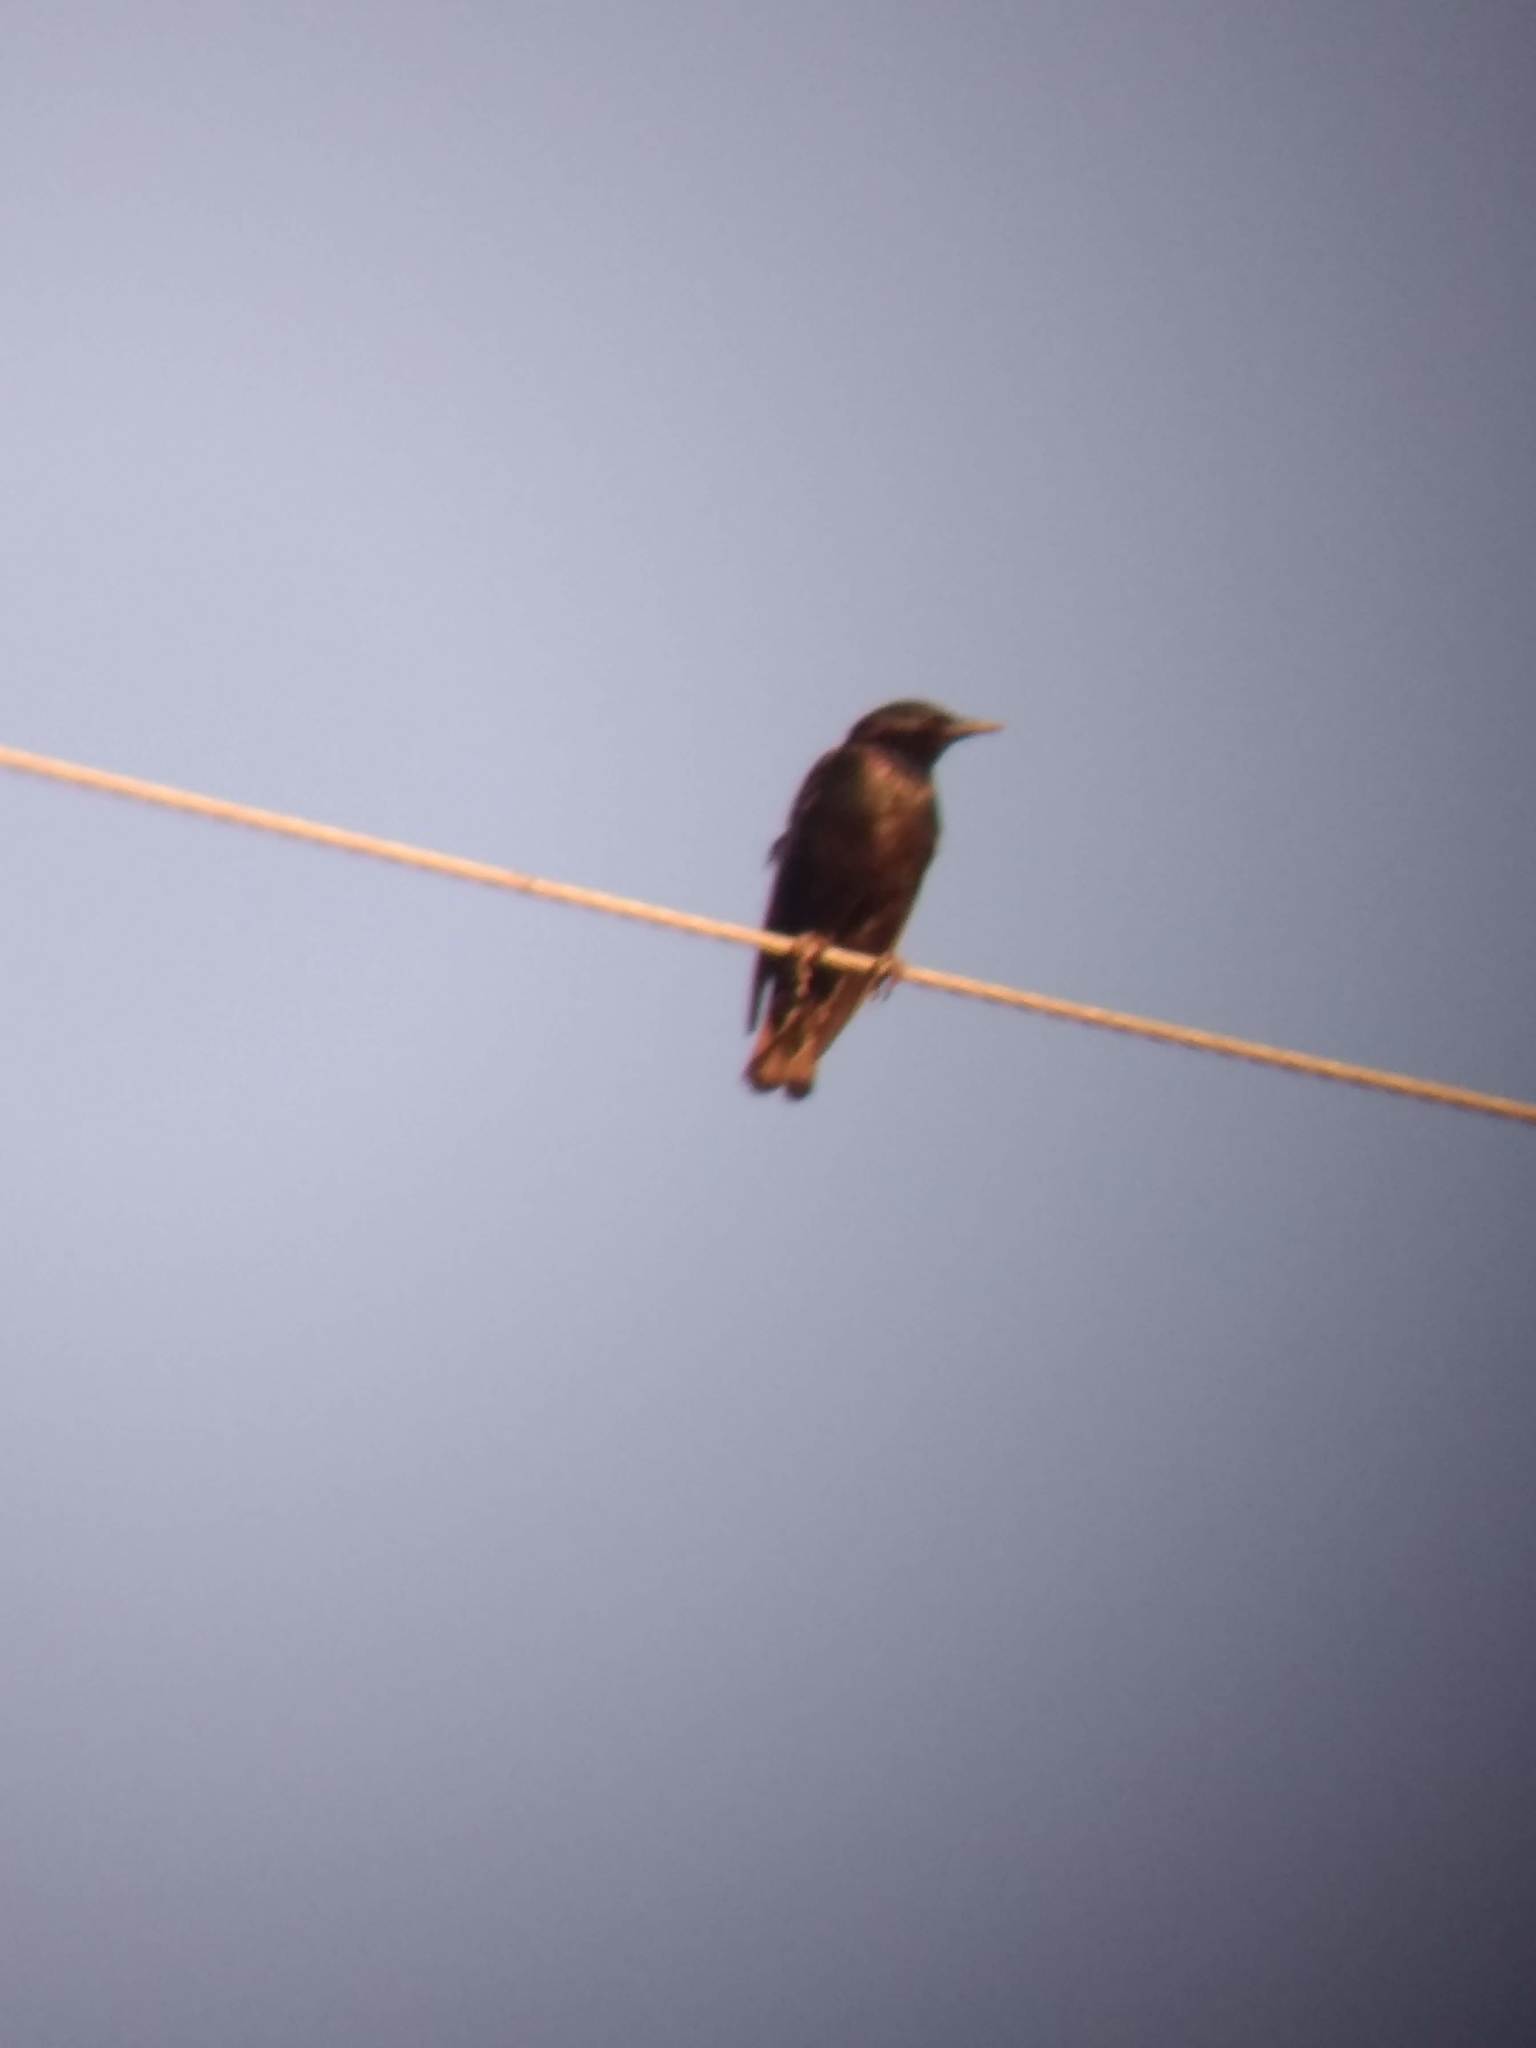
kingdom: Animalia
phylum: Chordata
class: Aves
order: Passeriformes
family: Sturnidae
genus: Sturnus
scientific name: Sturnus vulgaris
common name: Common starling
